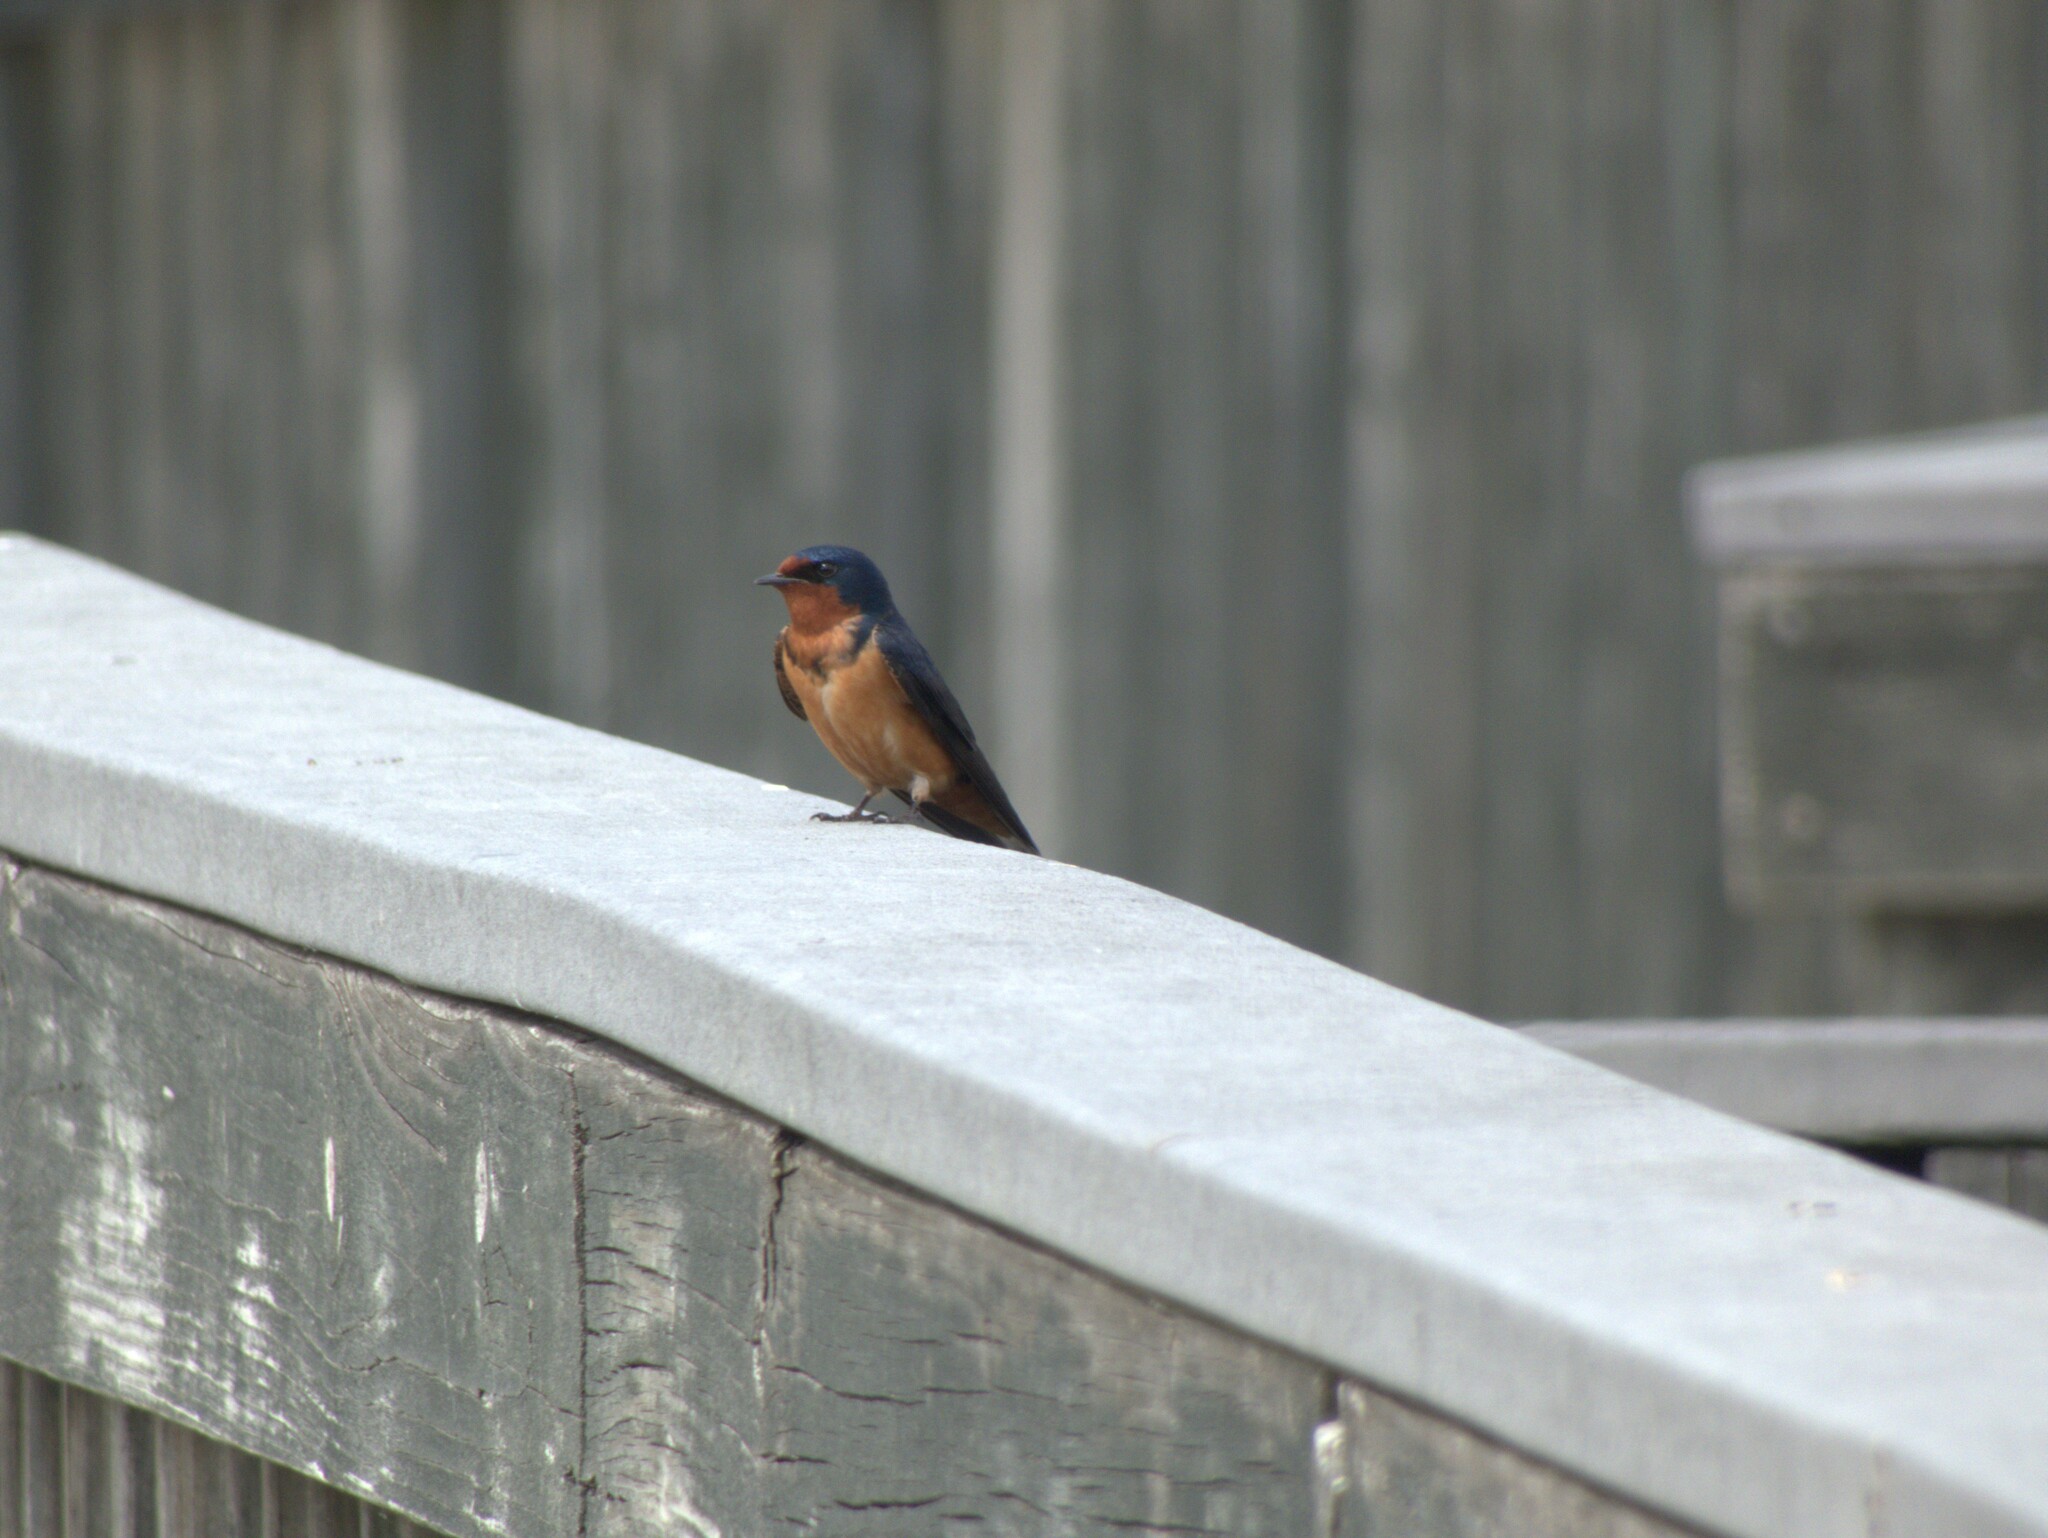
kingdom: Animalia
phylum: Chordata
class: Aves
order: Passeriformes
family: Hirundinidae
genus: Hirundo
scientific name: Hirundo rustica
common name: Barn swallow
